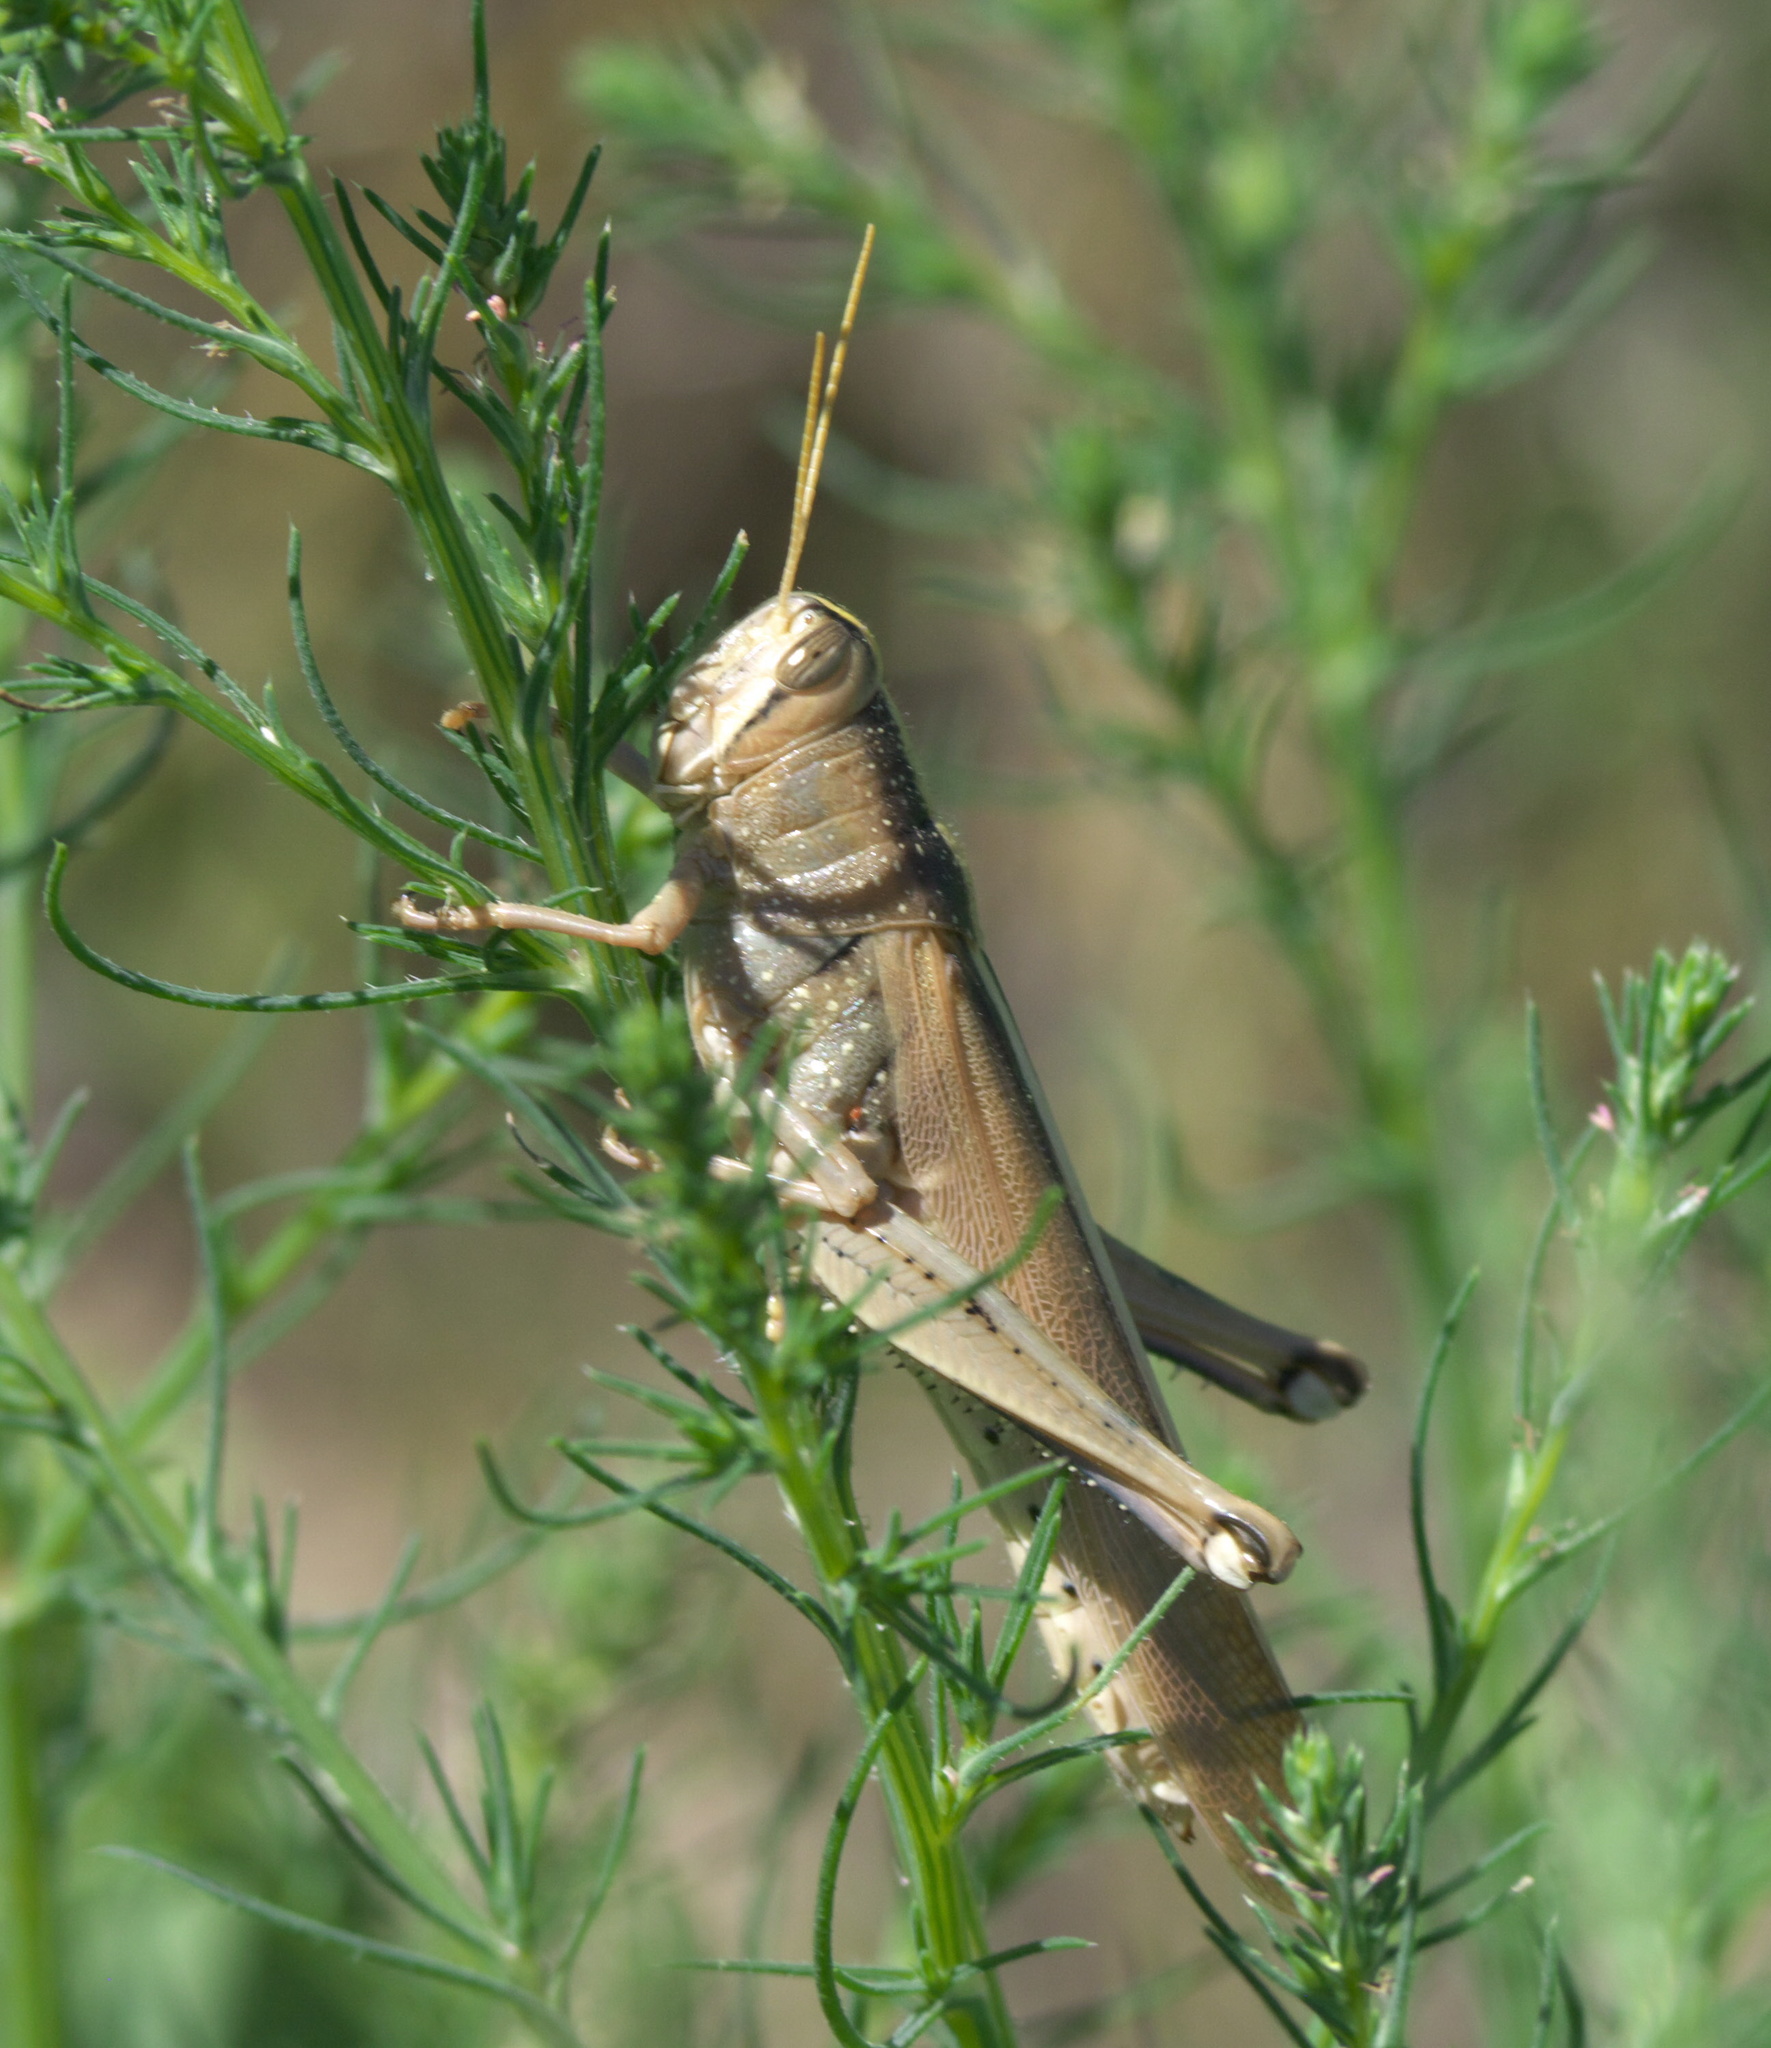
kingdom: Animalia
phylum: Arthropoda
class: Insecta
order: Orthoptera
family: Acrididae
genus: Schistocerca
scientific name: Schistocerca lineata
